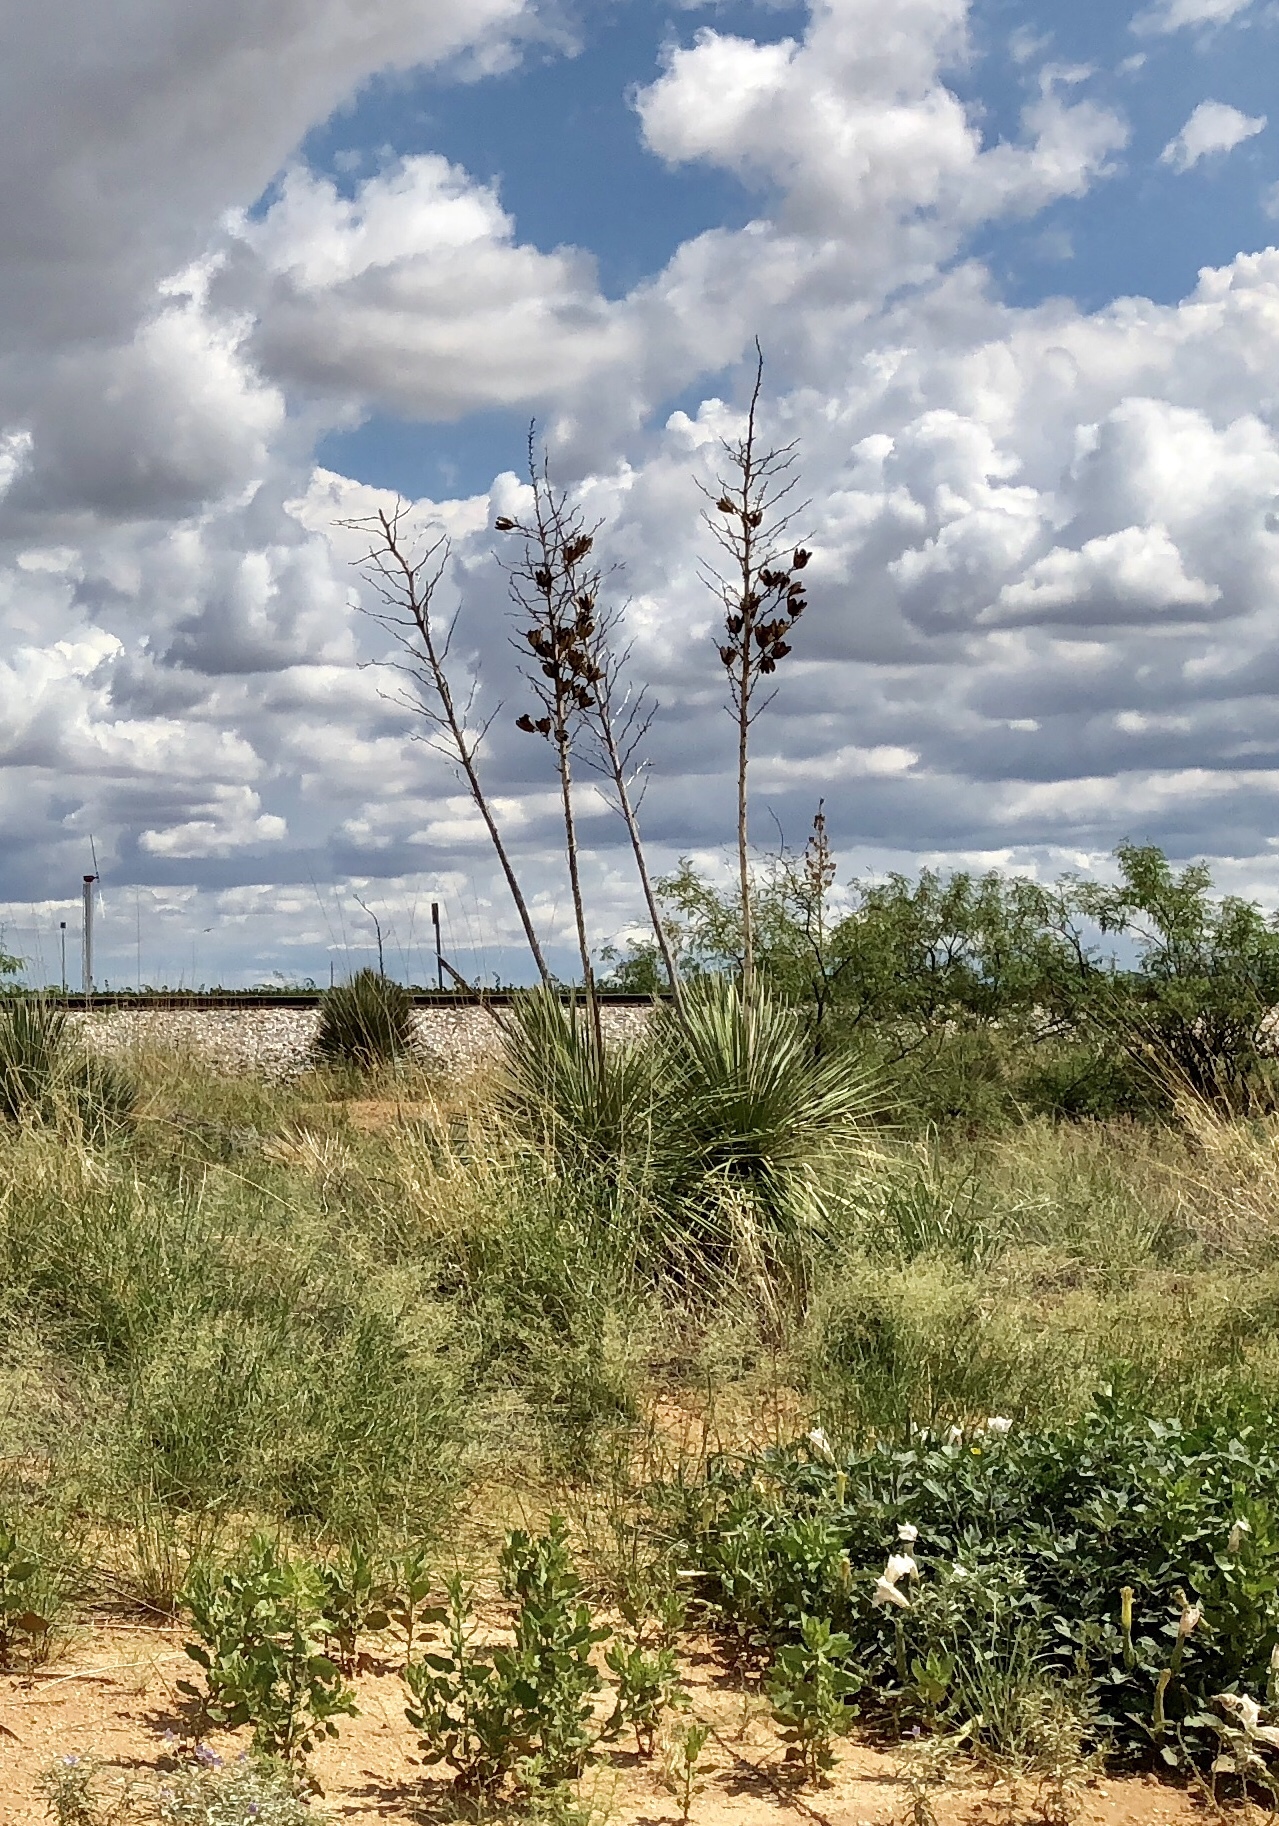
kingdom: Plantae
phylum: Tracheophyta
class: Liliopsida
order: Asparagales
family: Asparagaceae
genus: Yucca
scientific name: Yucca elata
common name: Palmella
